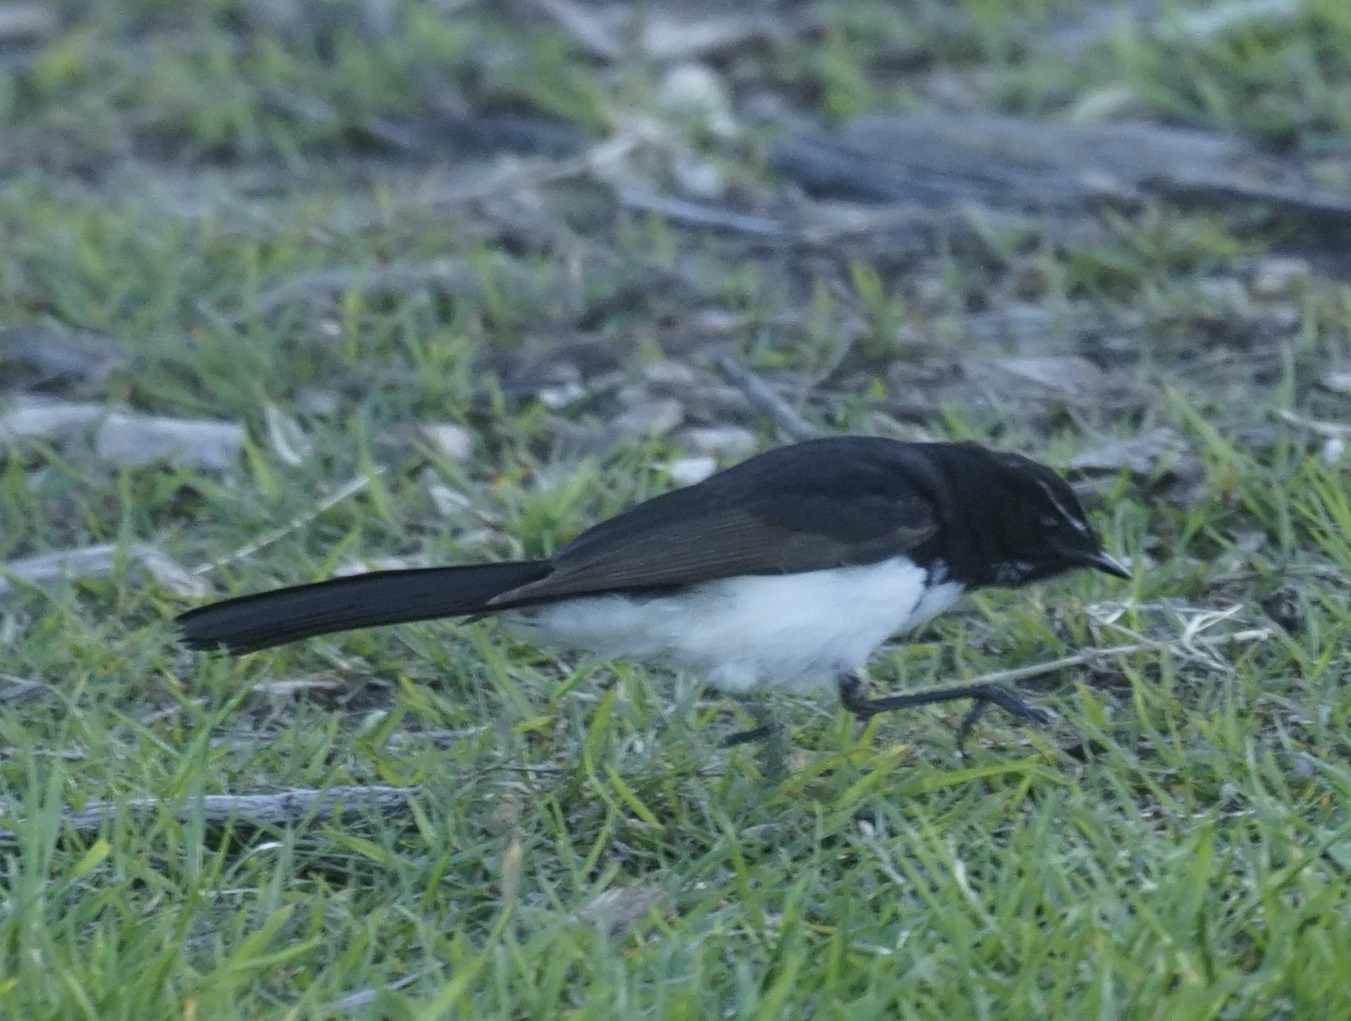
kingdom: Animalia
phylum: Chordata
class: Aves
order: Passeriformes
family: Rhipiduridae
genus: Rhipidura
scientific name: Rhipidura leucophrys
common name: Willie wagtail
